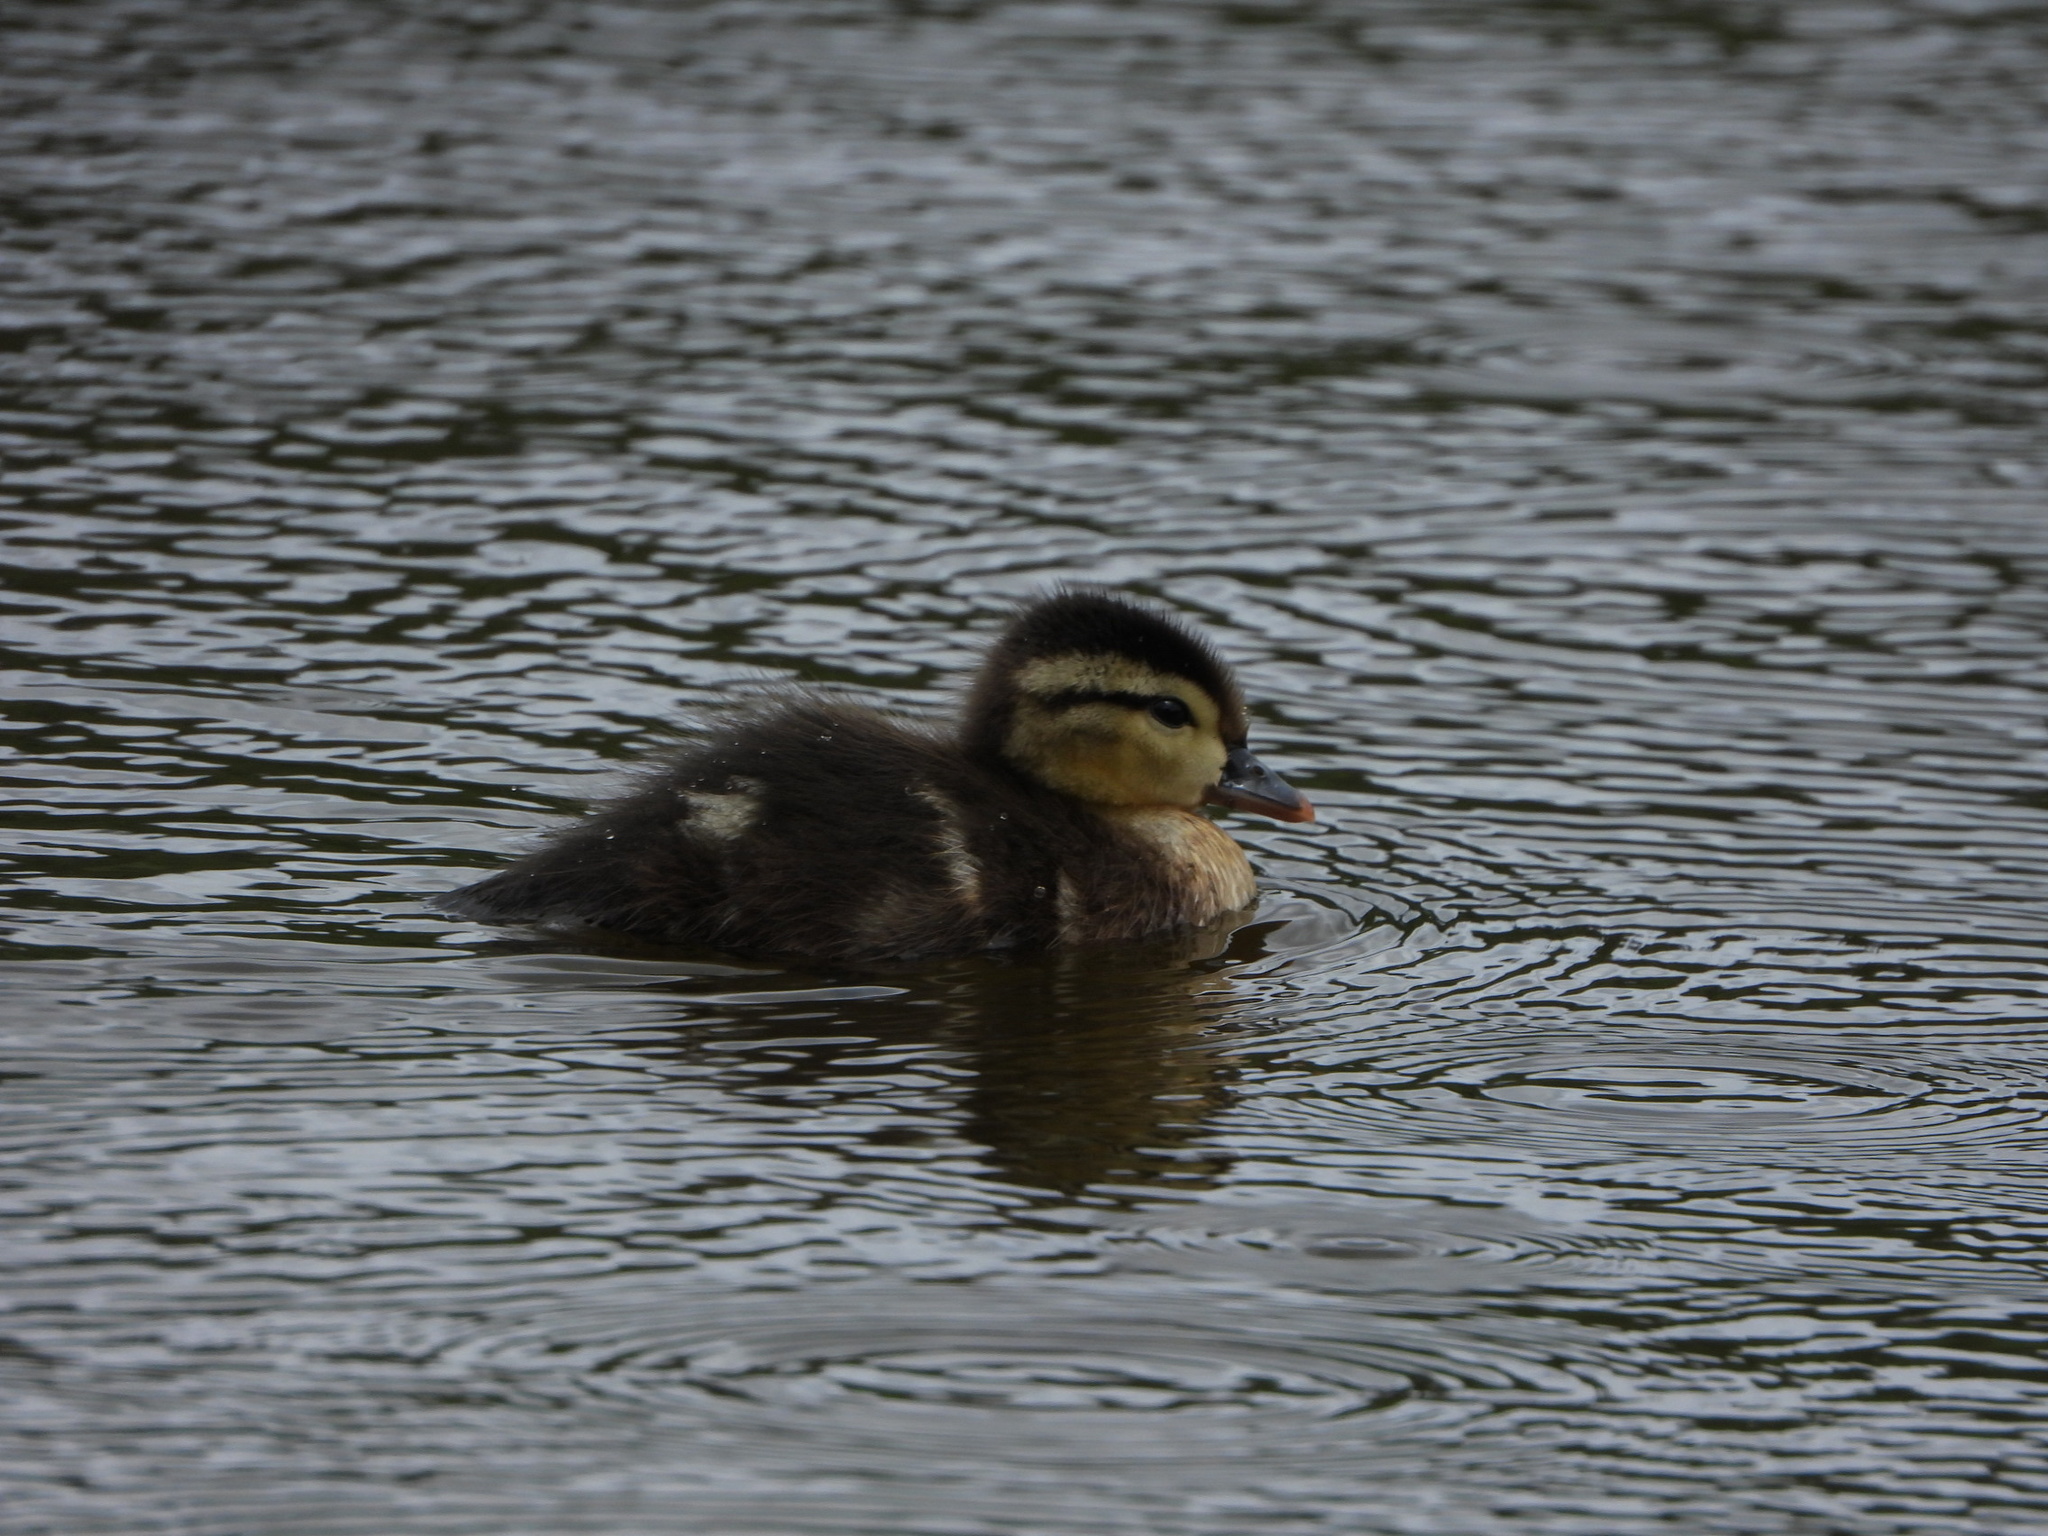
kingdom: Animalia
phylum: Chordata
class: Aves
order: Anseriformes
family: Anatidae
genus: Aix
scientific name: Aix sponsa
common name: Wood duck
